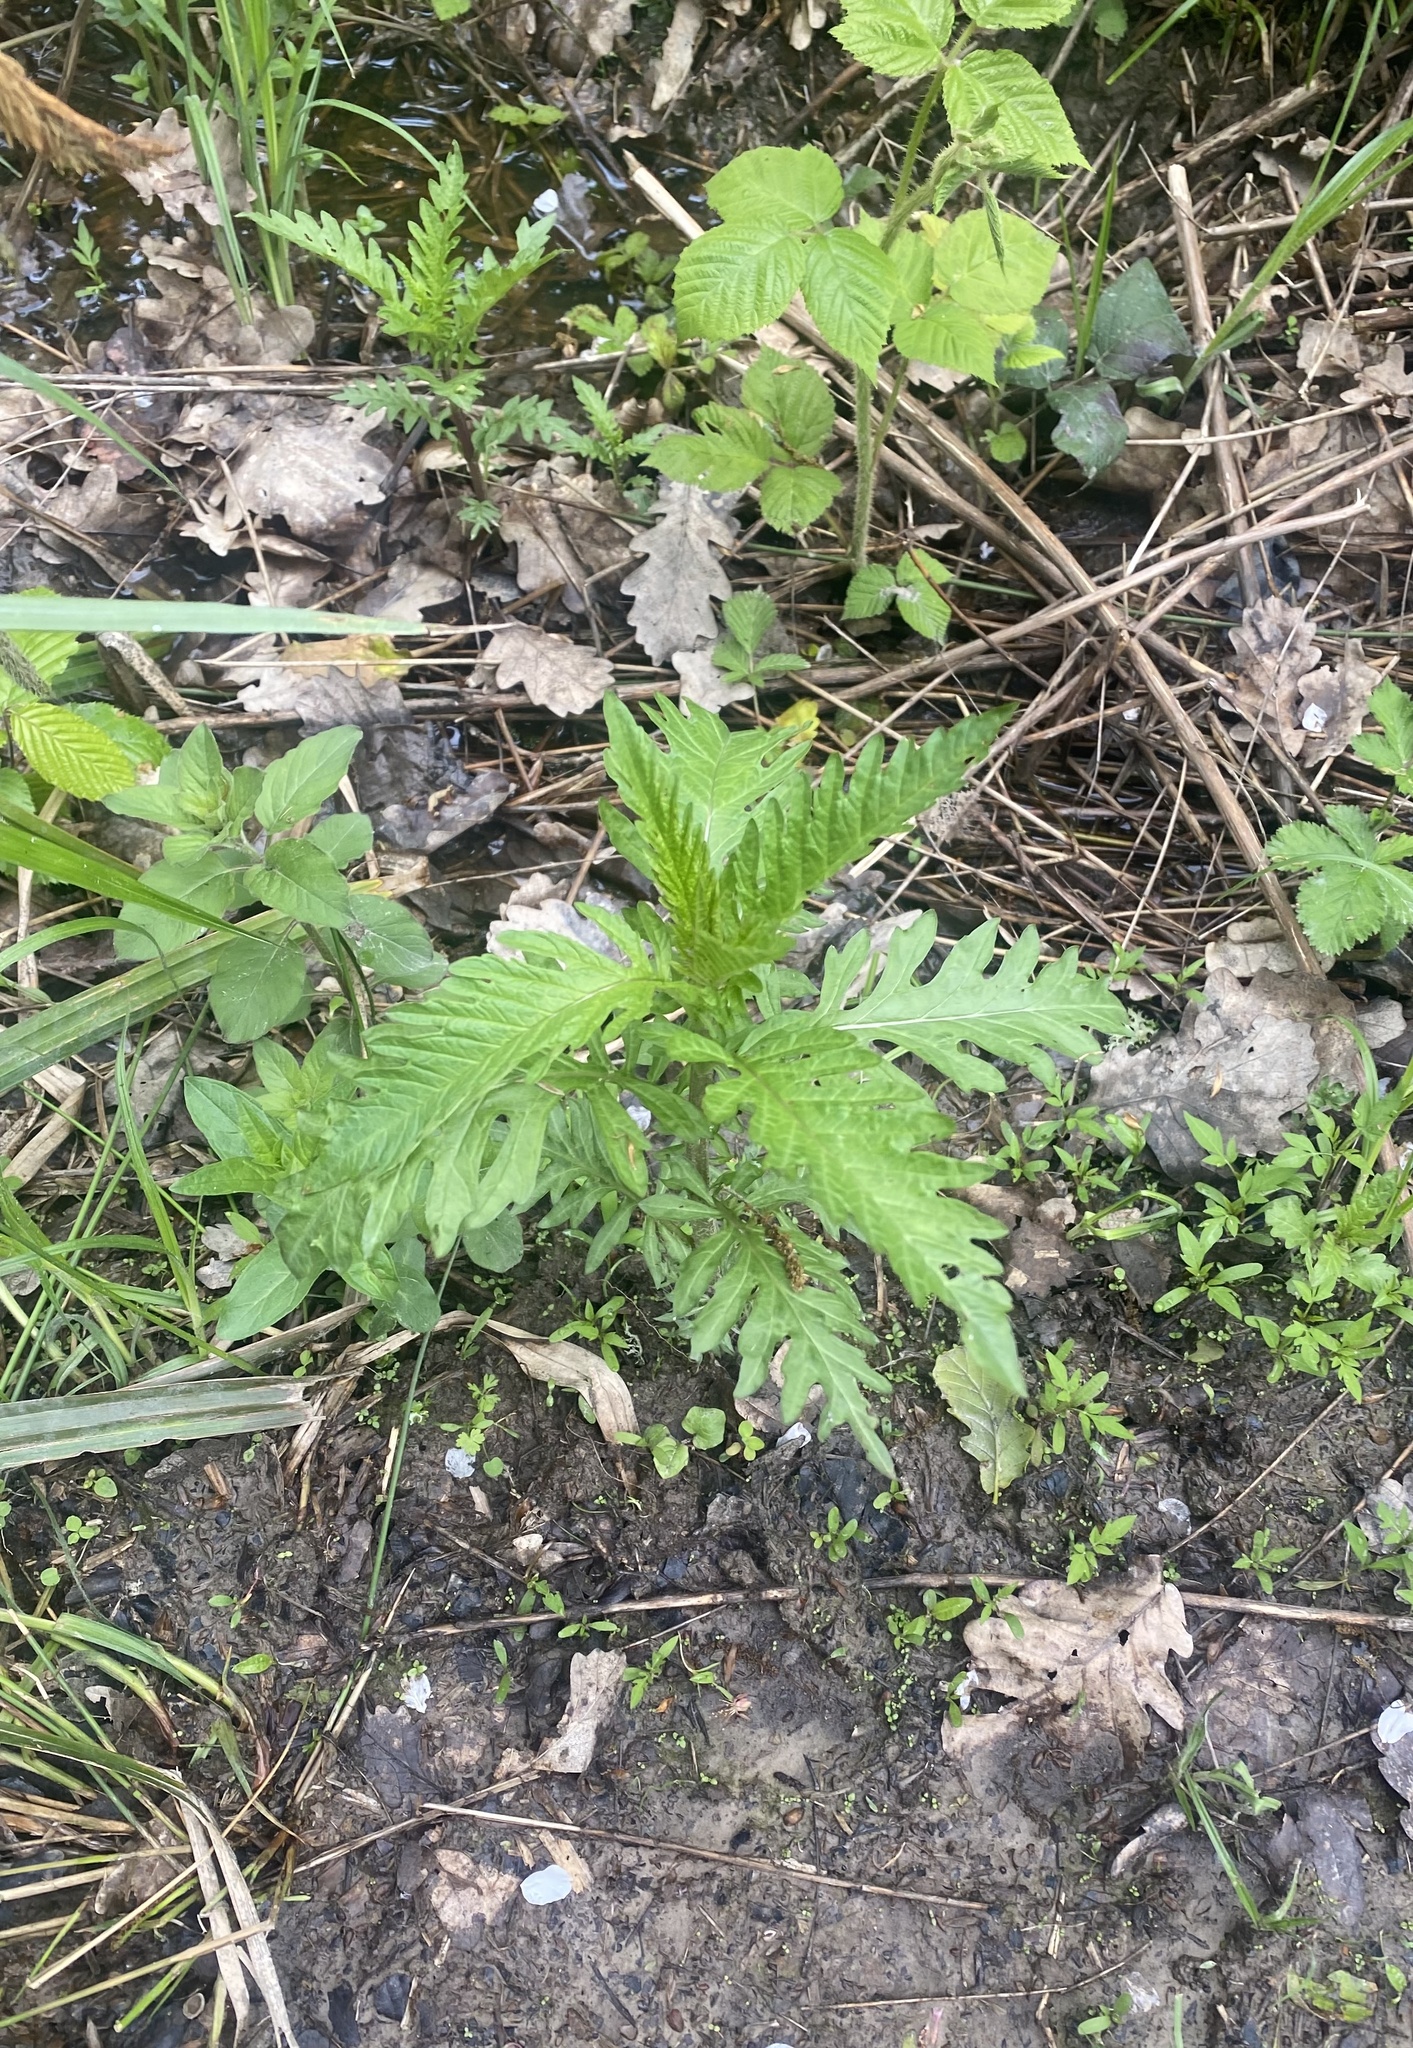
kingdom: Plantae
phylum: Tracheophyta
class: Magnoliopsida
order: Lamiales
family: Lamiaceae
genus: Lycopus
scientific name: Lycopus exaltatus
